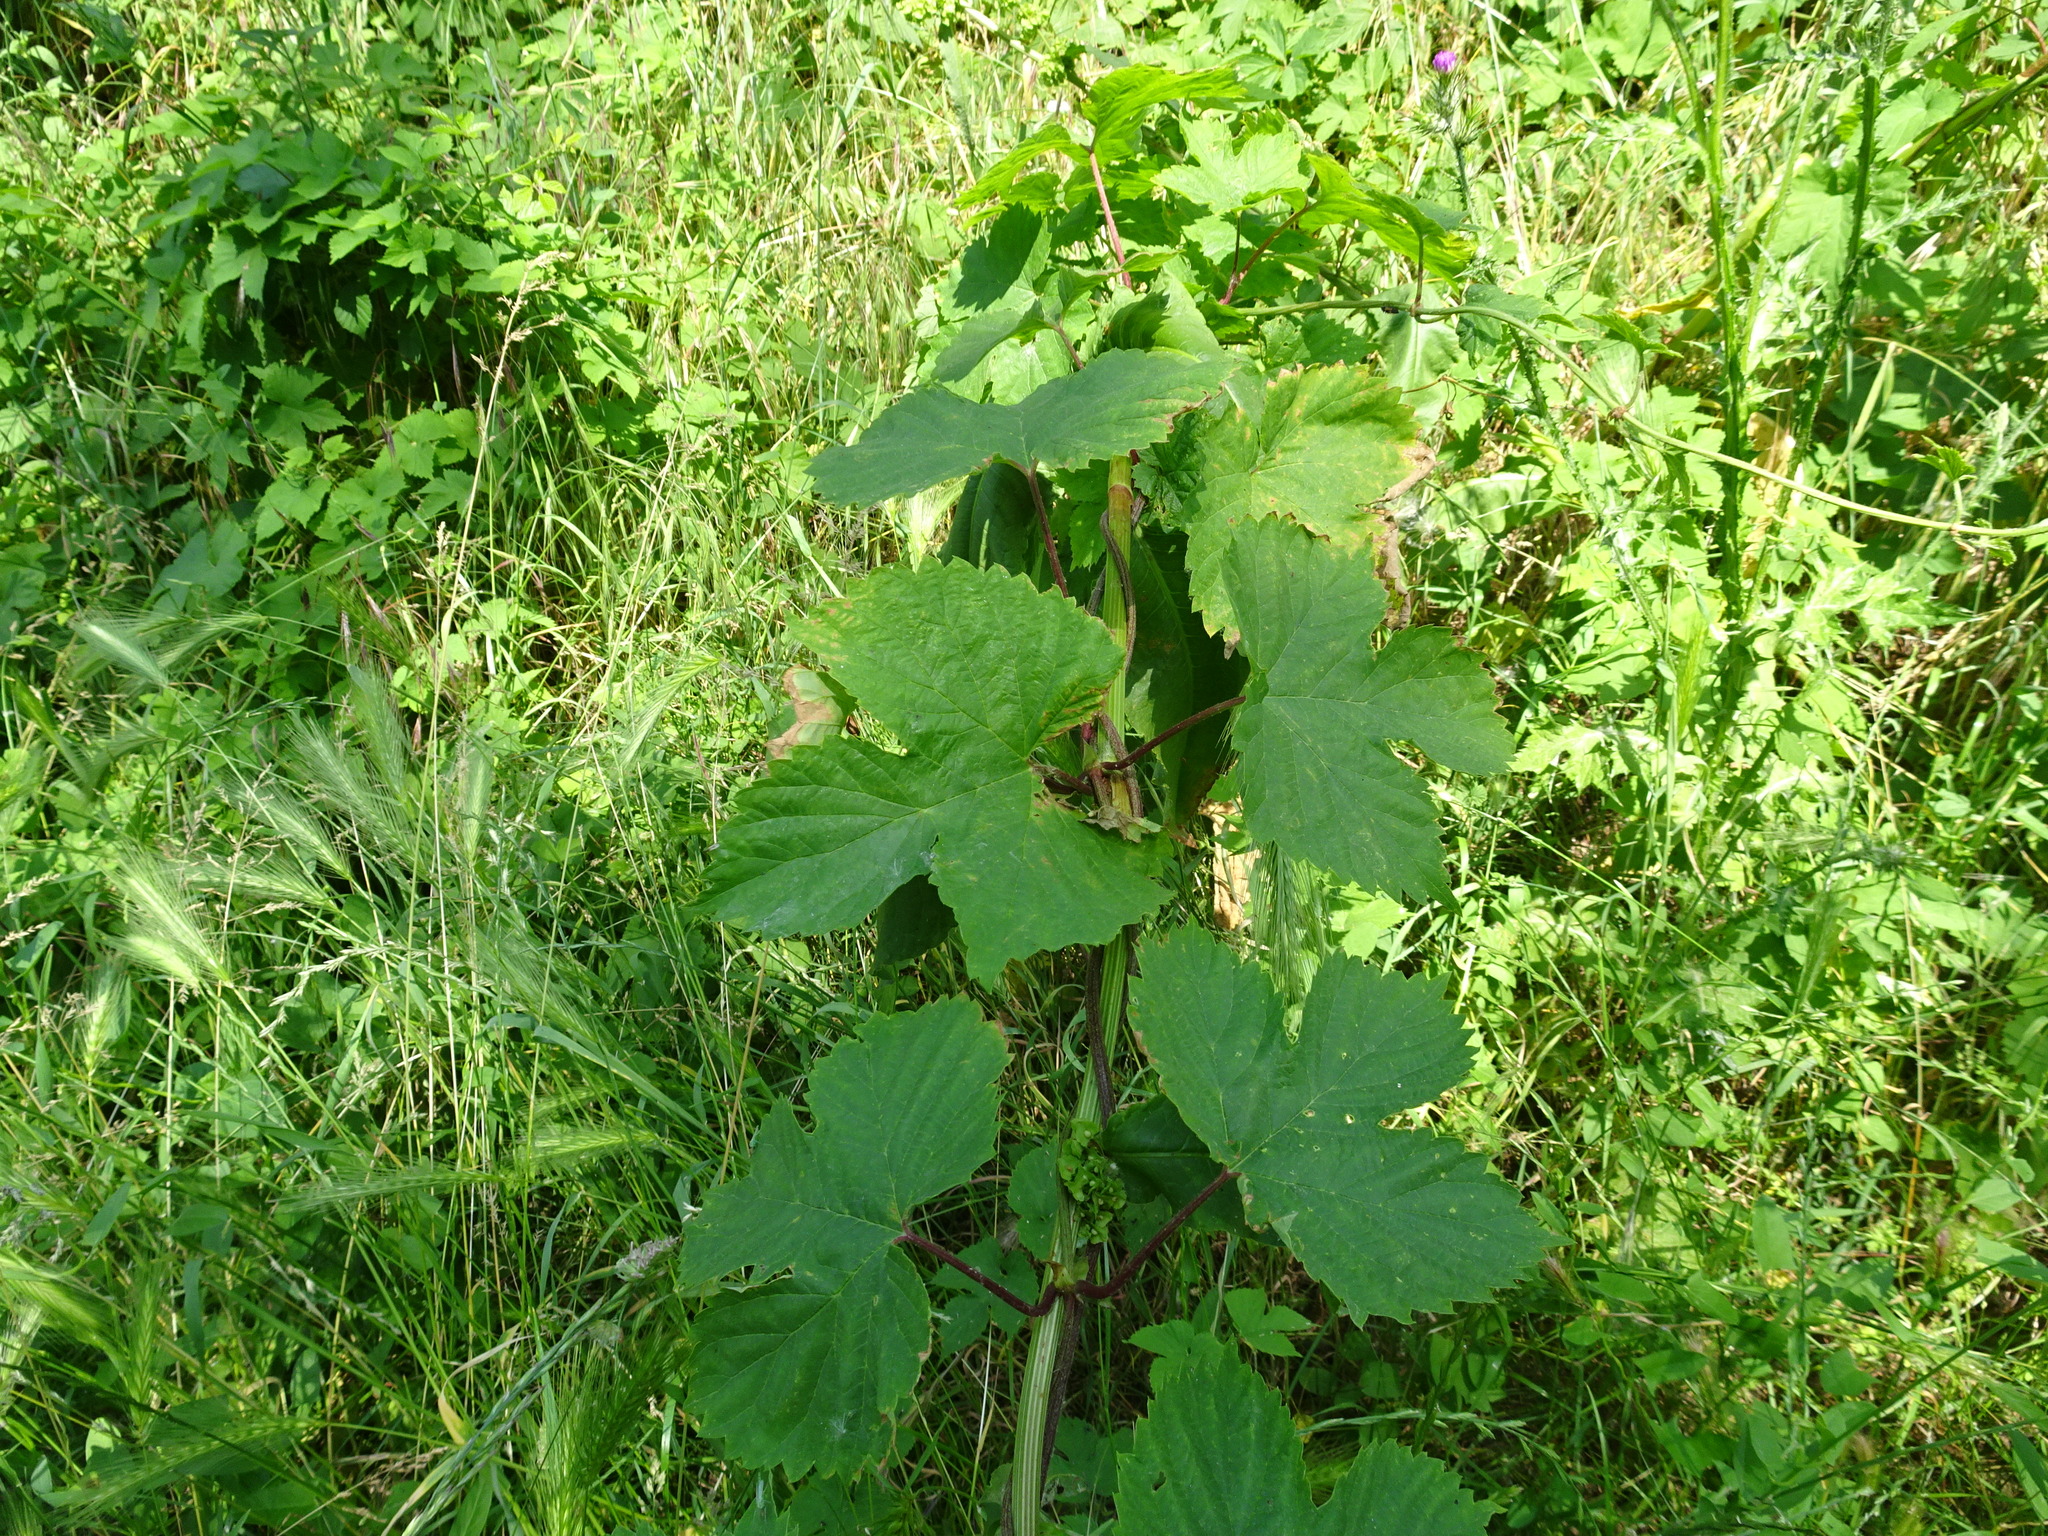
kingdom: Plantae
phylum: Tracheophyta
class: Magnoliopsida
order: Rosales
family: Cannabaceae
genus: Humulus
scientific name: Humulus lupulus
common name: Hop
